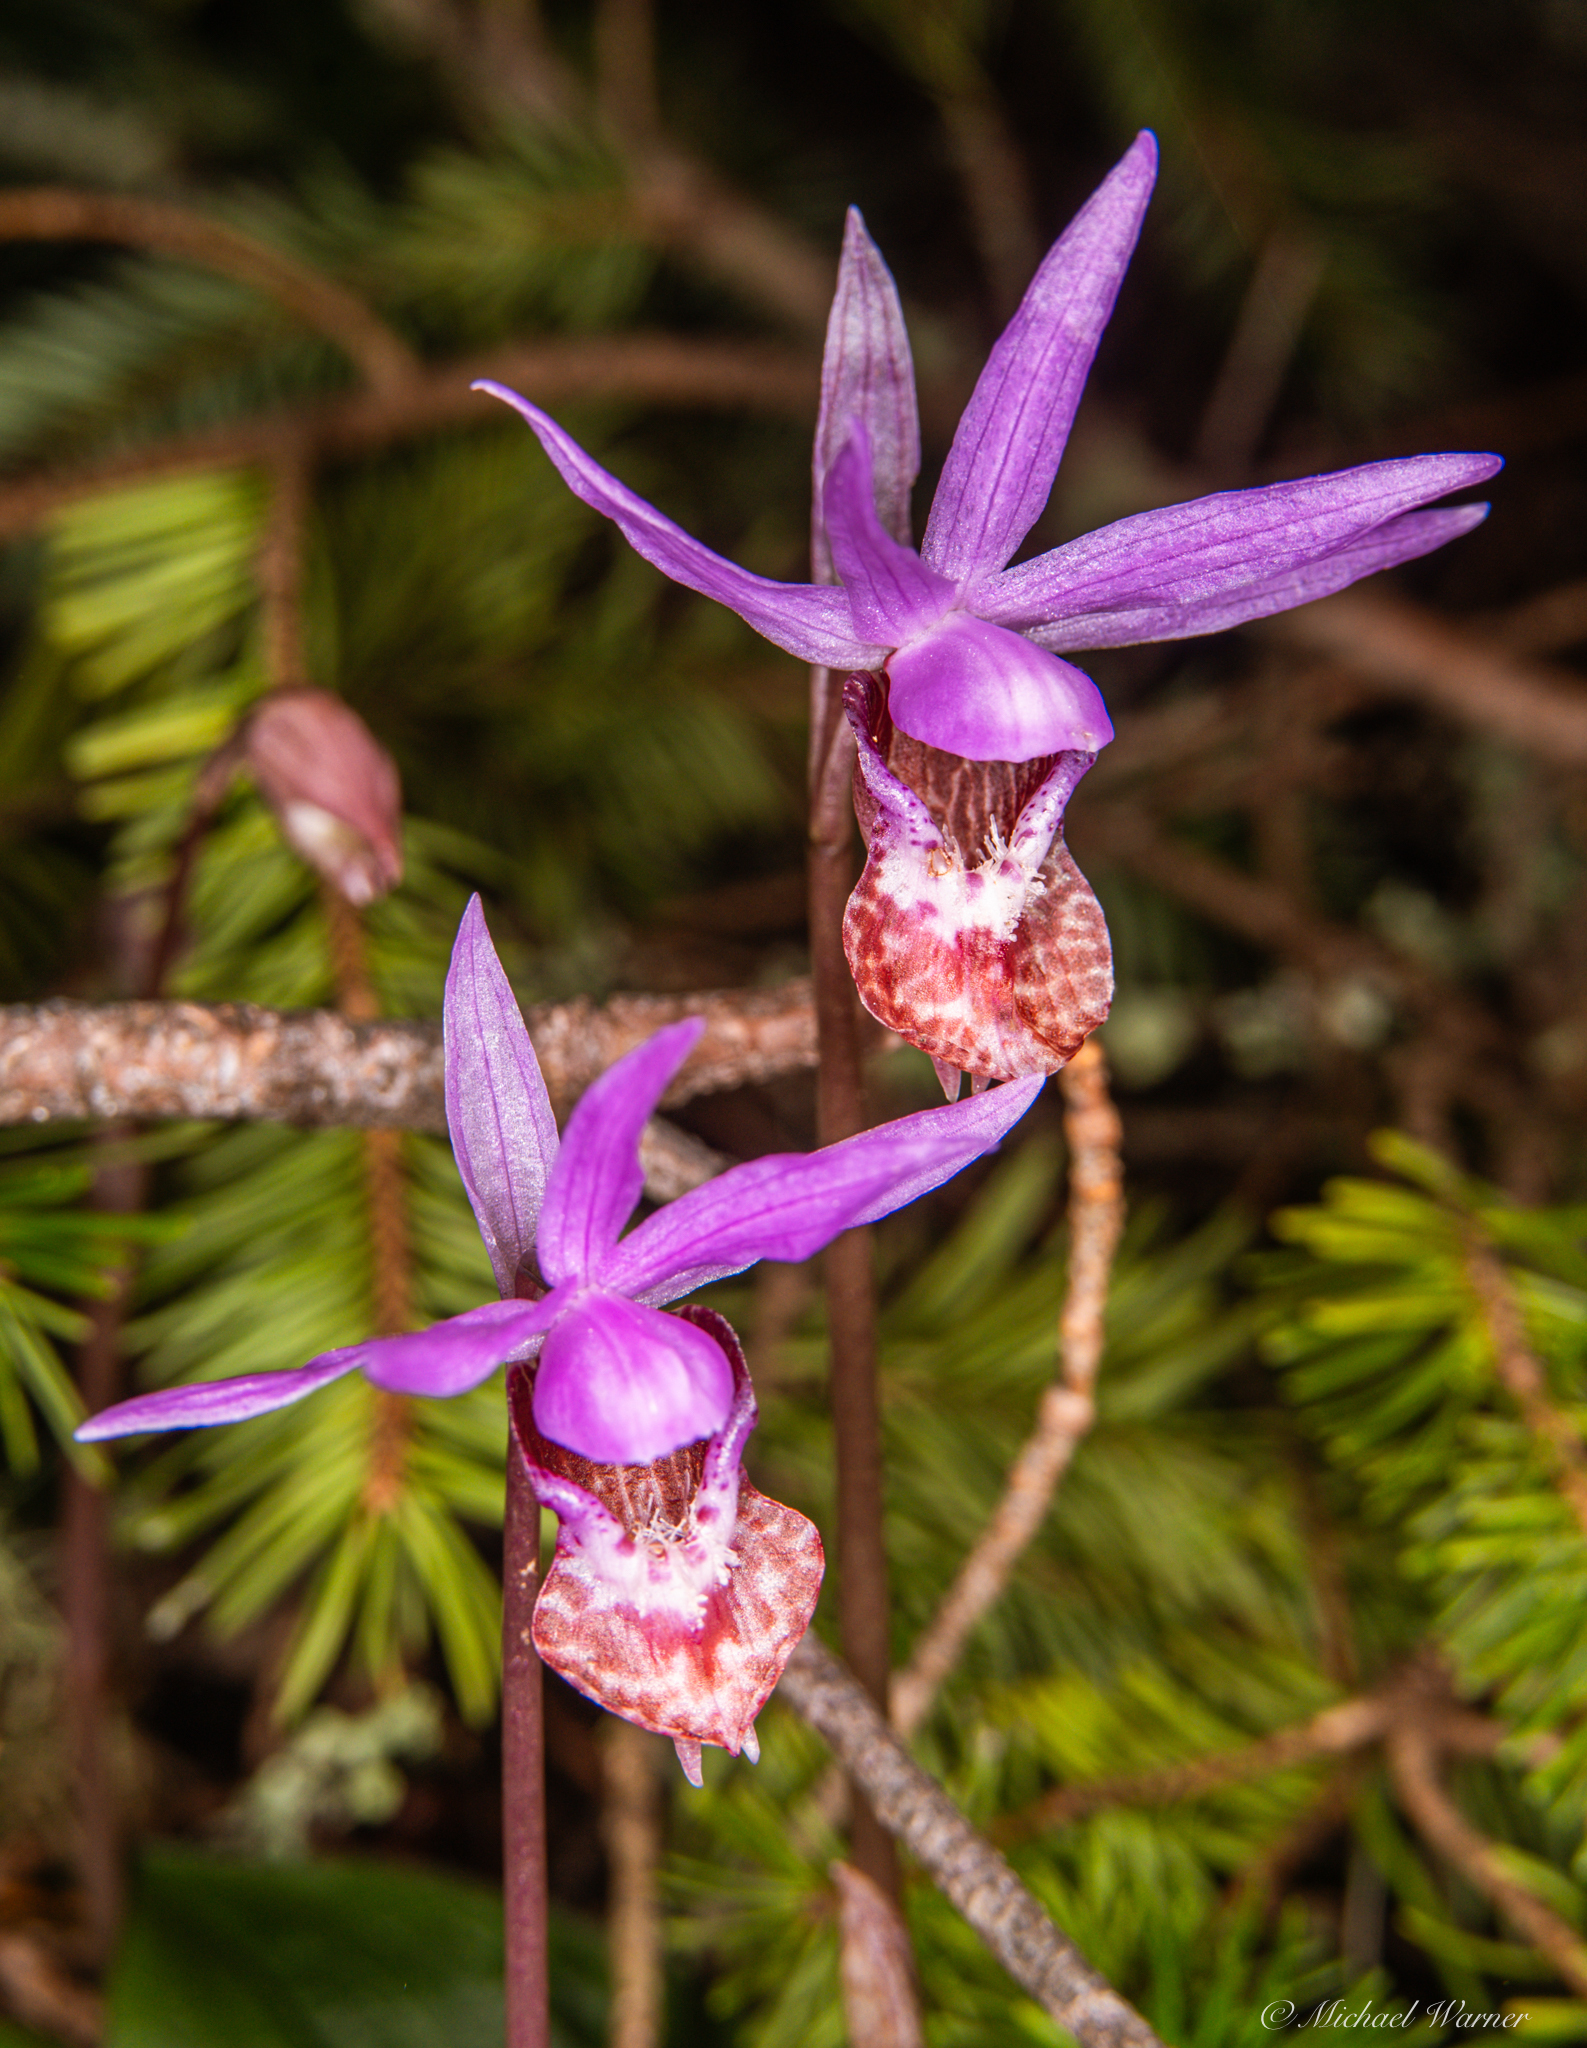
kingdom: Plantae
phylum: Tracheophyta
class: Liliopsida
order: Asparagales
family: Orchidaceae
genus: Calypso
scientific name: Calypso bulbosa
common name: Calypso
